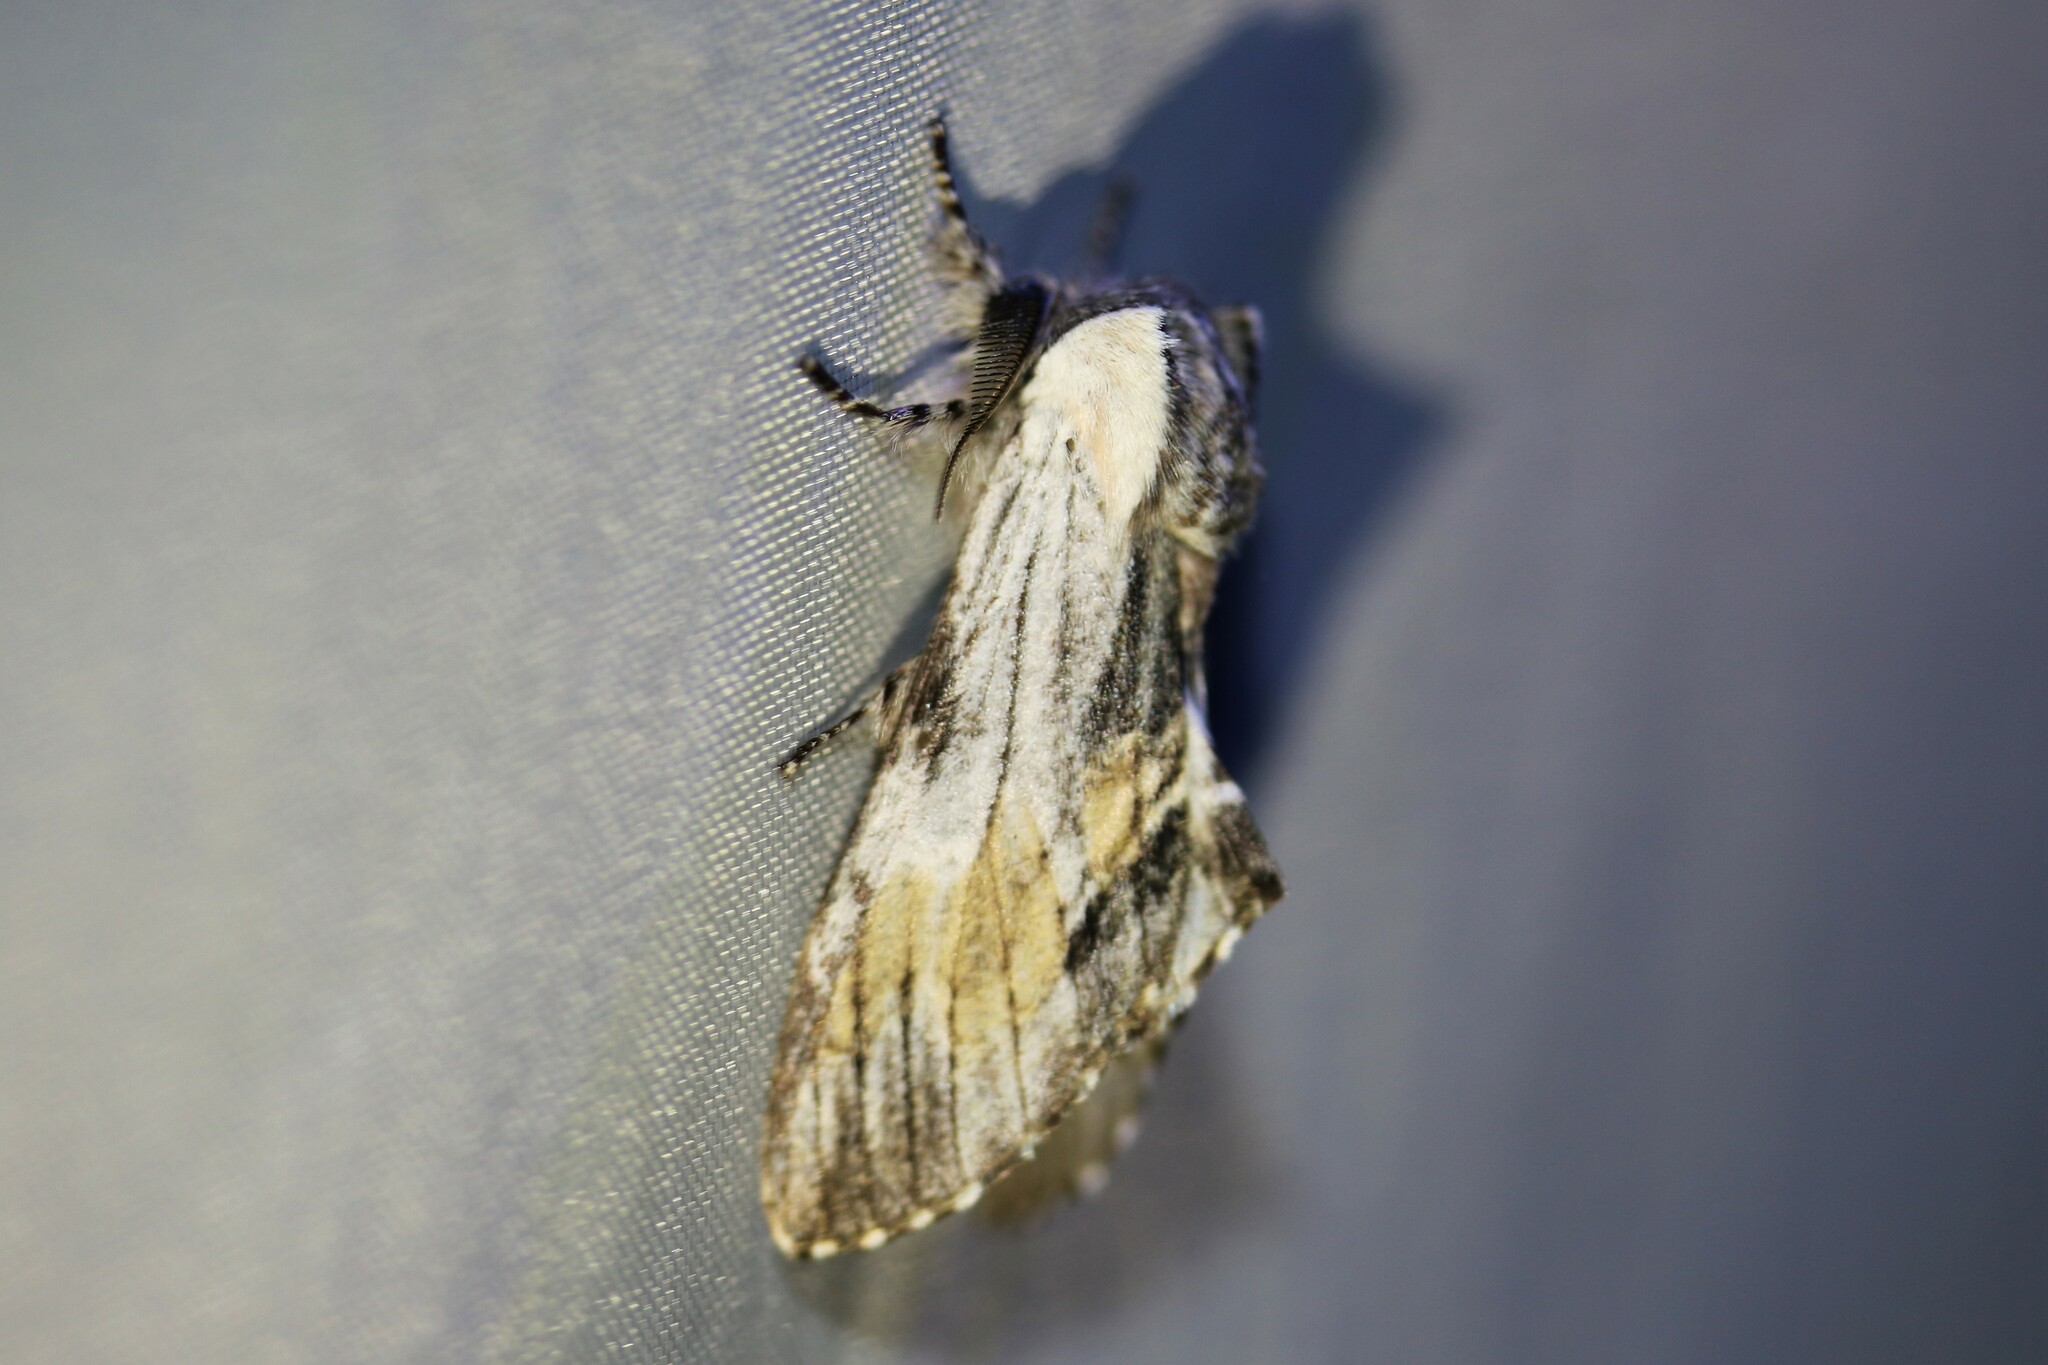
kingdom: Animalia
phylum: Arthropoda
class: Insecta
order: Lepidoptera
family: Notodontidae
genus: Harpyia
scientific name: Harpyia milhauseri
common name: Tawny prominent
